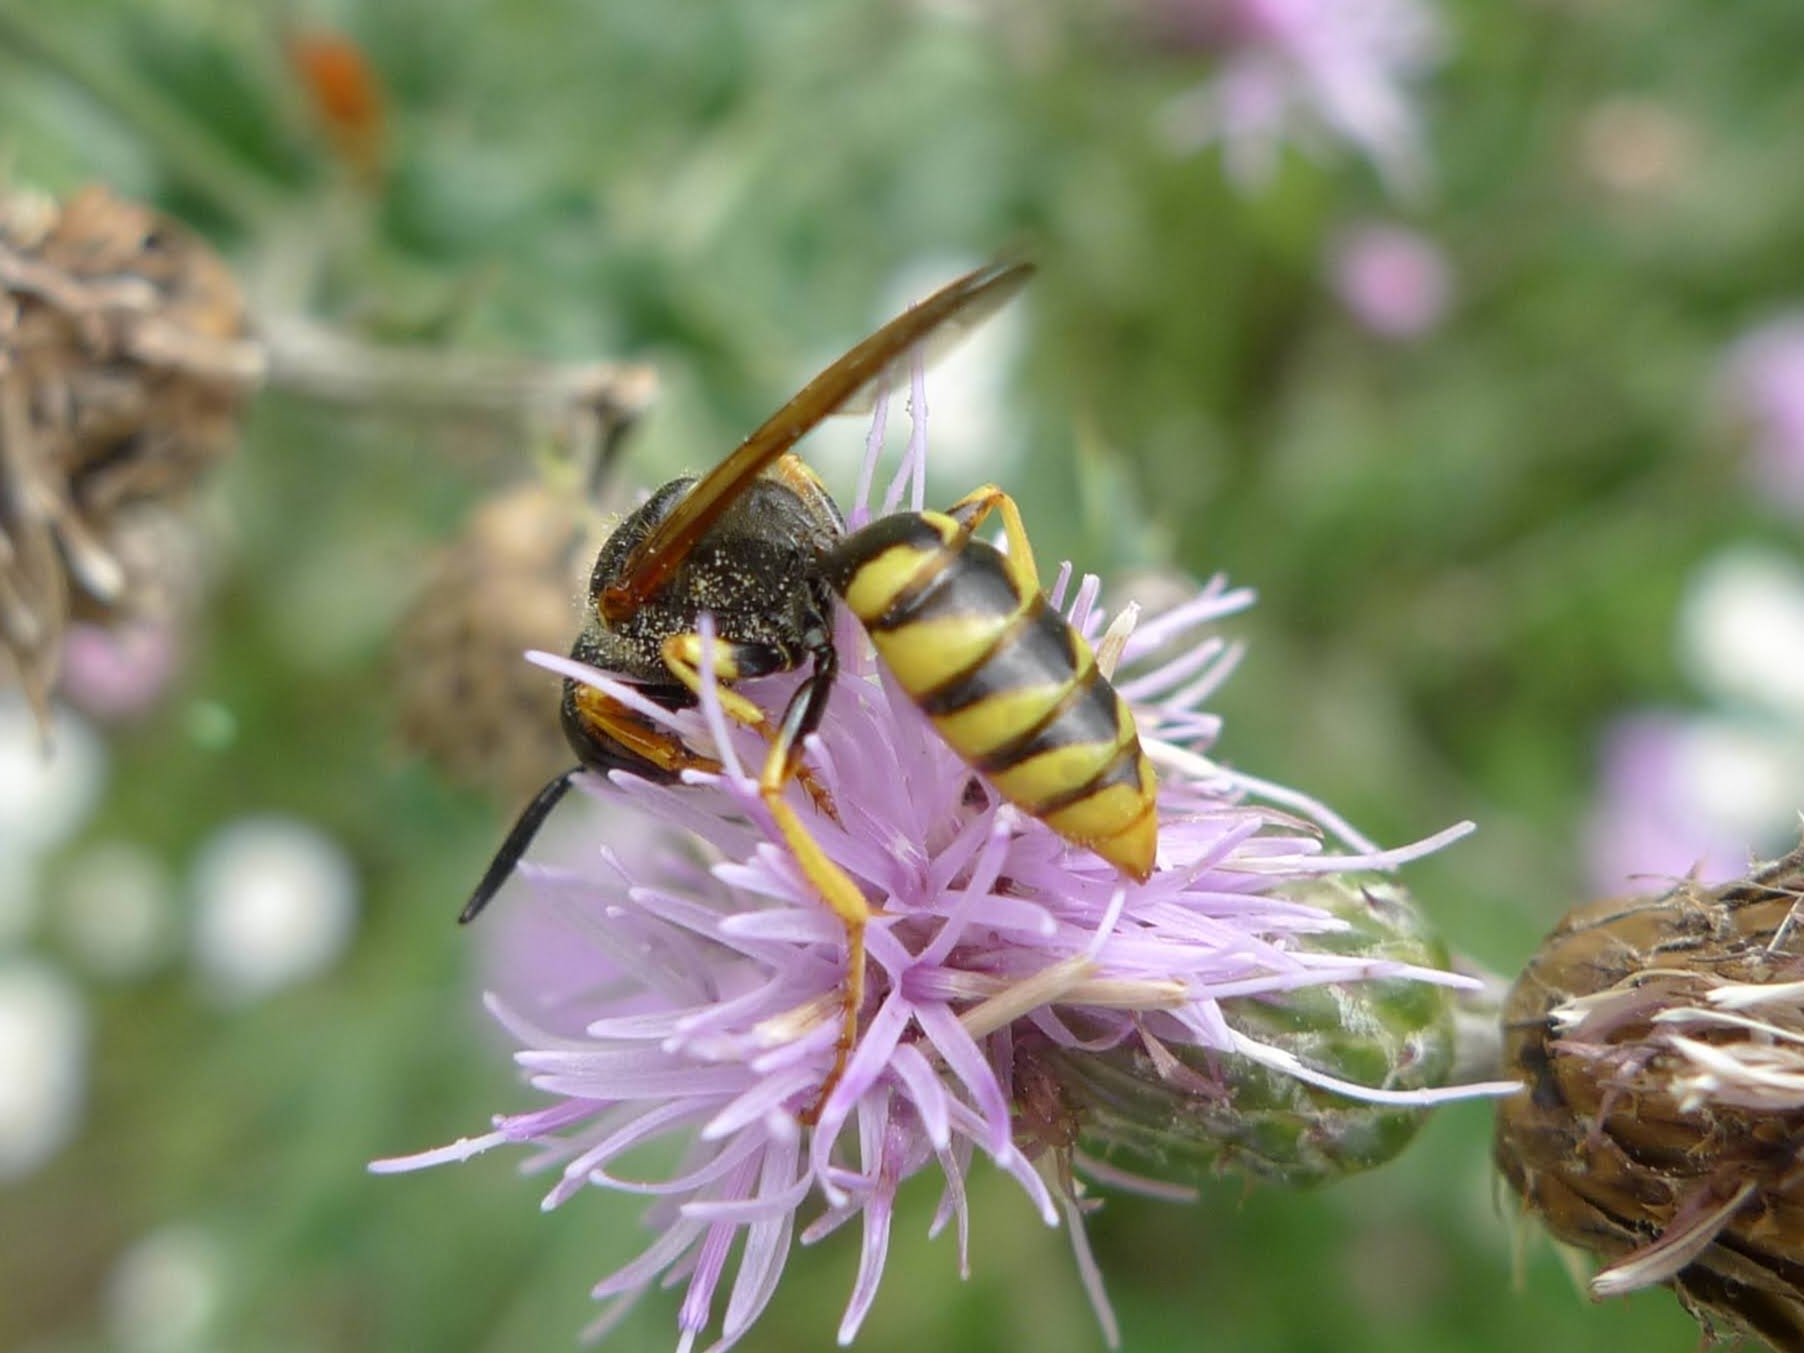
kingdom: Animalia
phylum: Arthropoda
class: Insecta
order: Hymenoptera
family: Crabronidae
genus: Philanthus
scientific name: Philanthus triangulum
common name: Bee wolf
